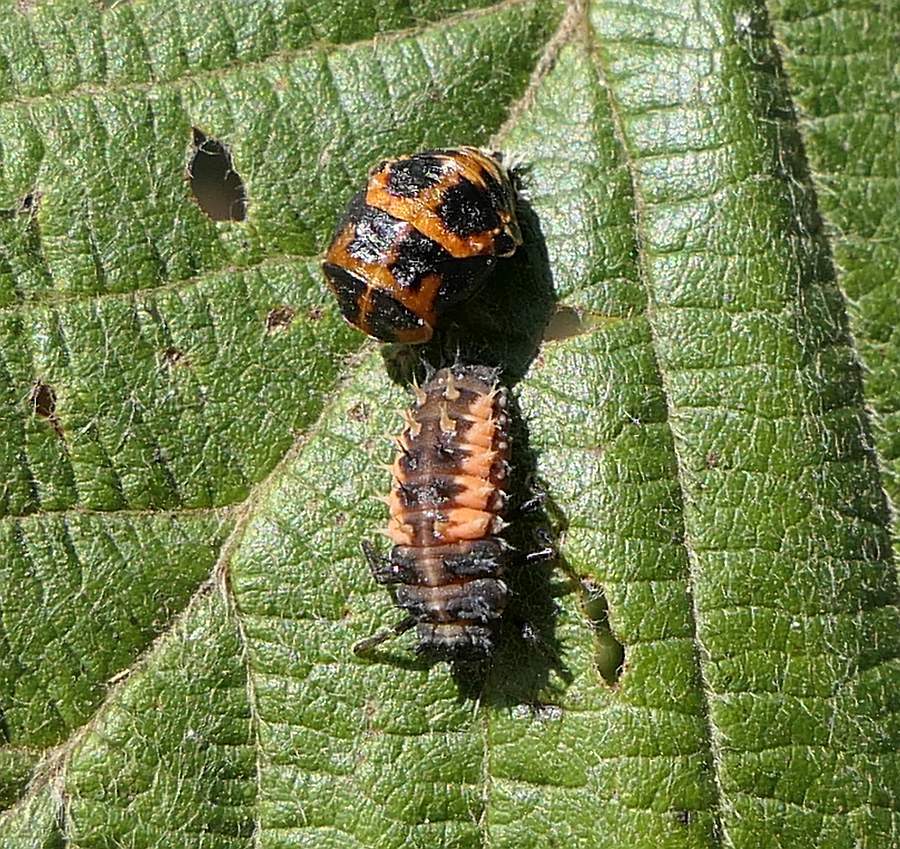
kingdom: Animalia
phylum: Arthropoda
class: Insecta
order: Coleoptera
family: Coccinellidae
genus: Harmonia
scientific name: Harmonia axyridis
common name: Harlequin ladybird
